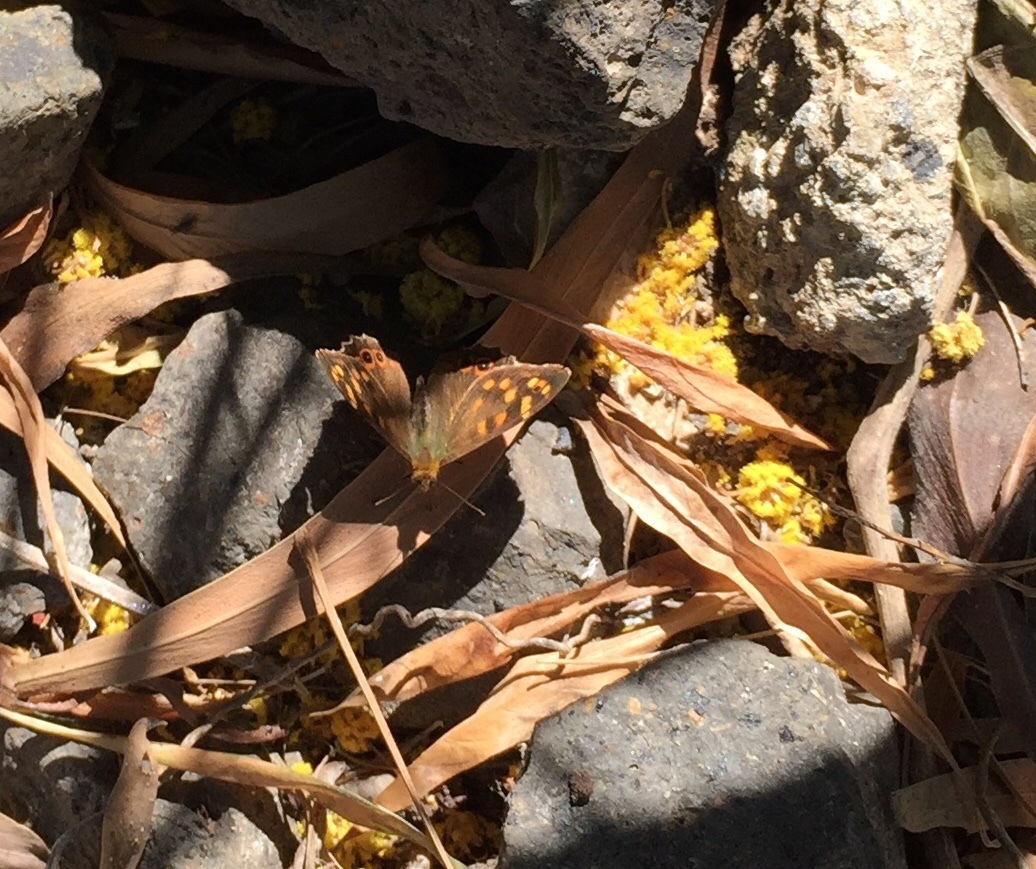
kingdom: Animalia
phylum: Arthropoda
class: Insecta
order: Lepidoptera
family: Nymphalidae
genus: Pararge
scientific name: Pararge aegeria
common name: Speckled wood
